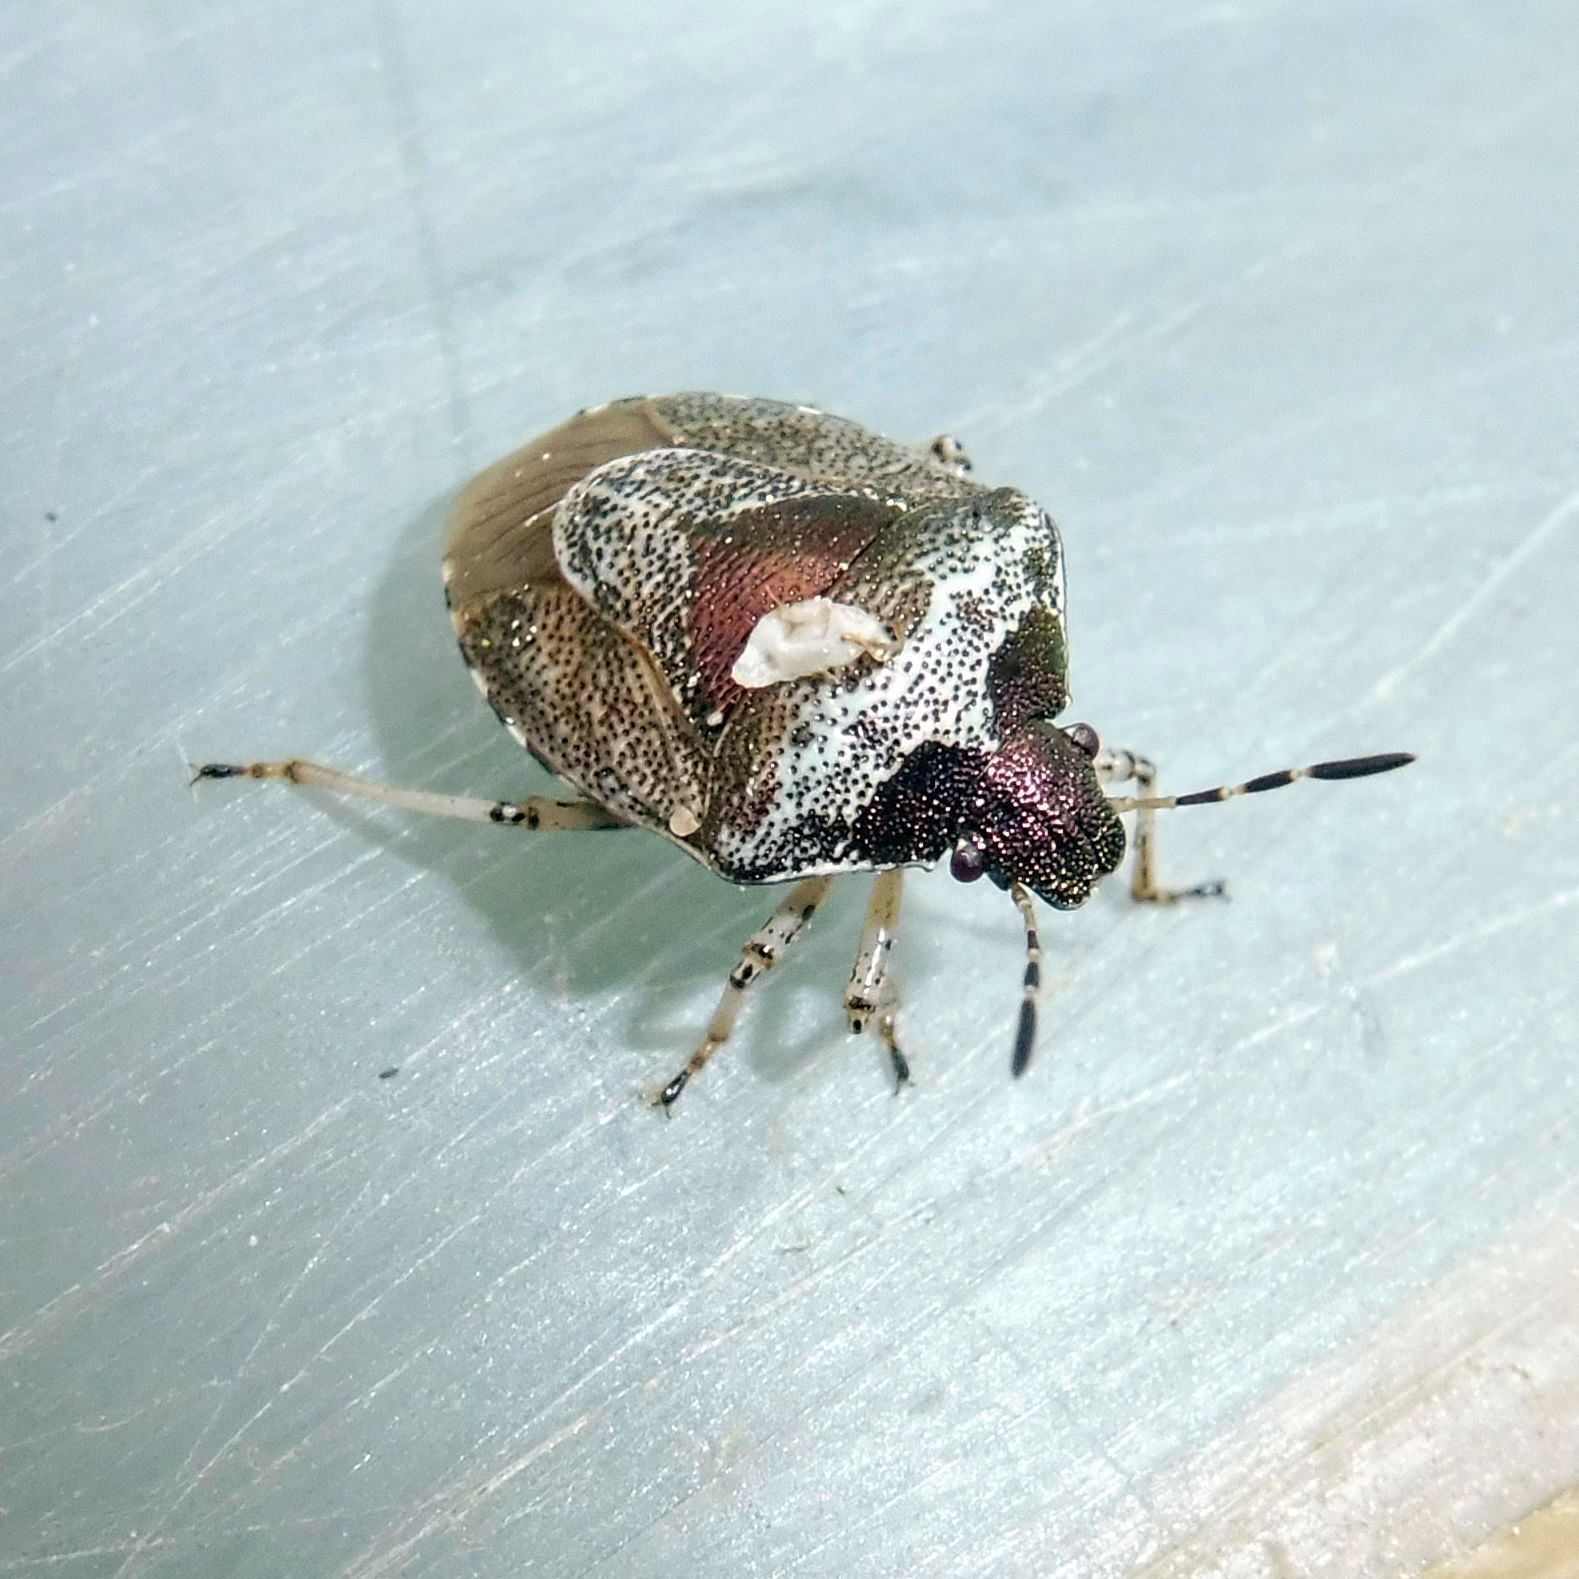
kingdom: Animalia
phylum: Arthropoda
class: Insecta
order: Hemiptera
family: Pentatomidae
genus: Eysarcoris
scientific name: Eysarcoris venustissimus
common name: Woundwort shieldbug
